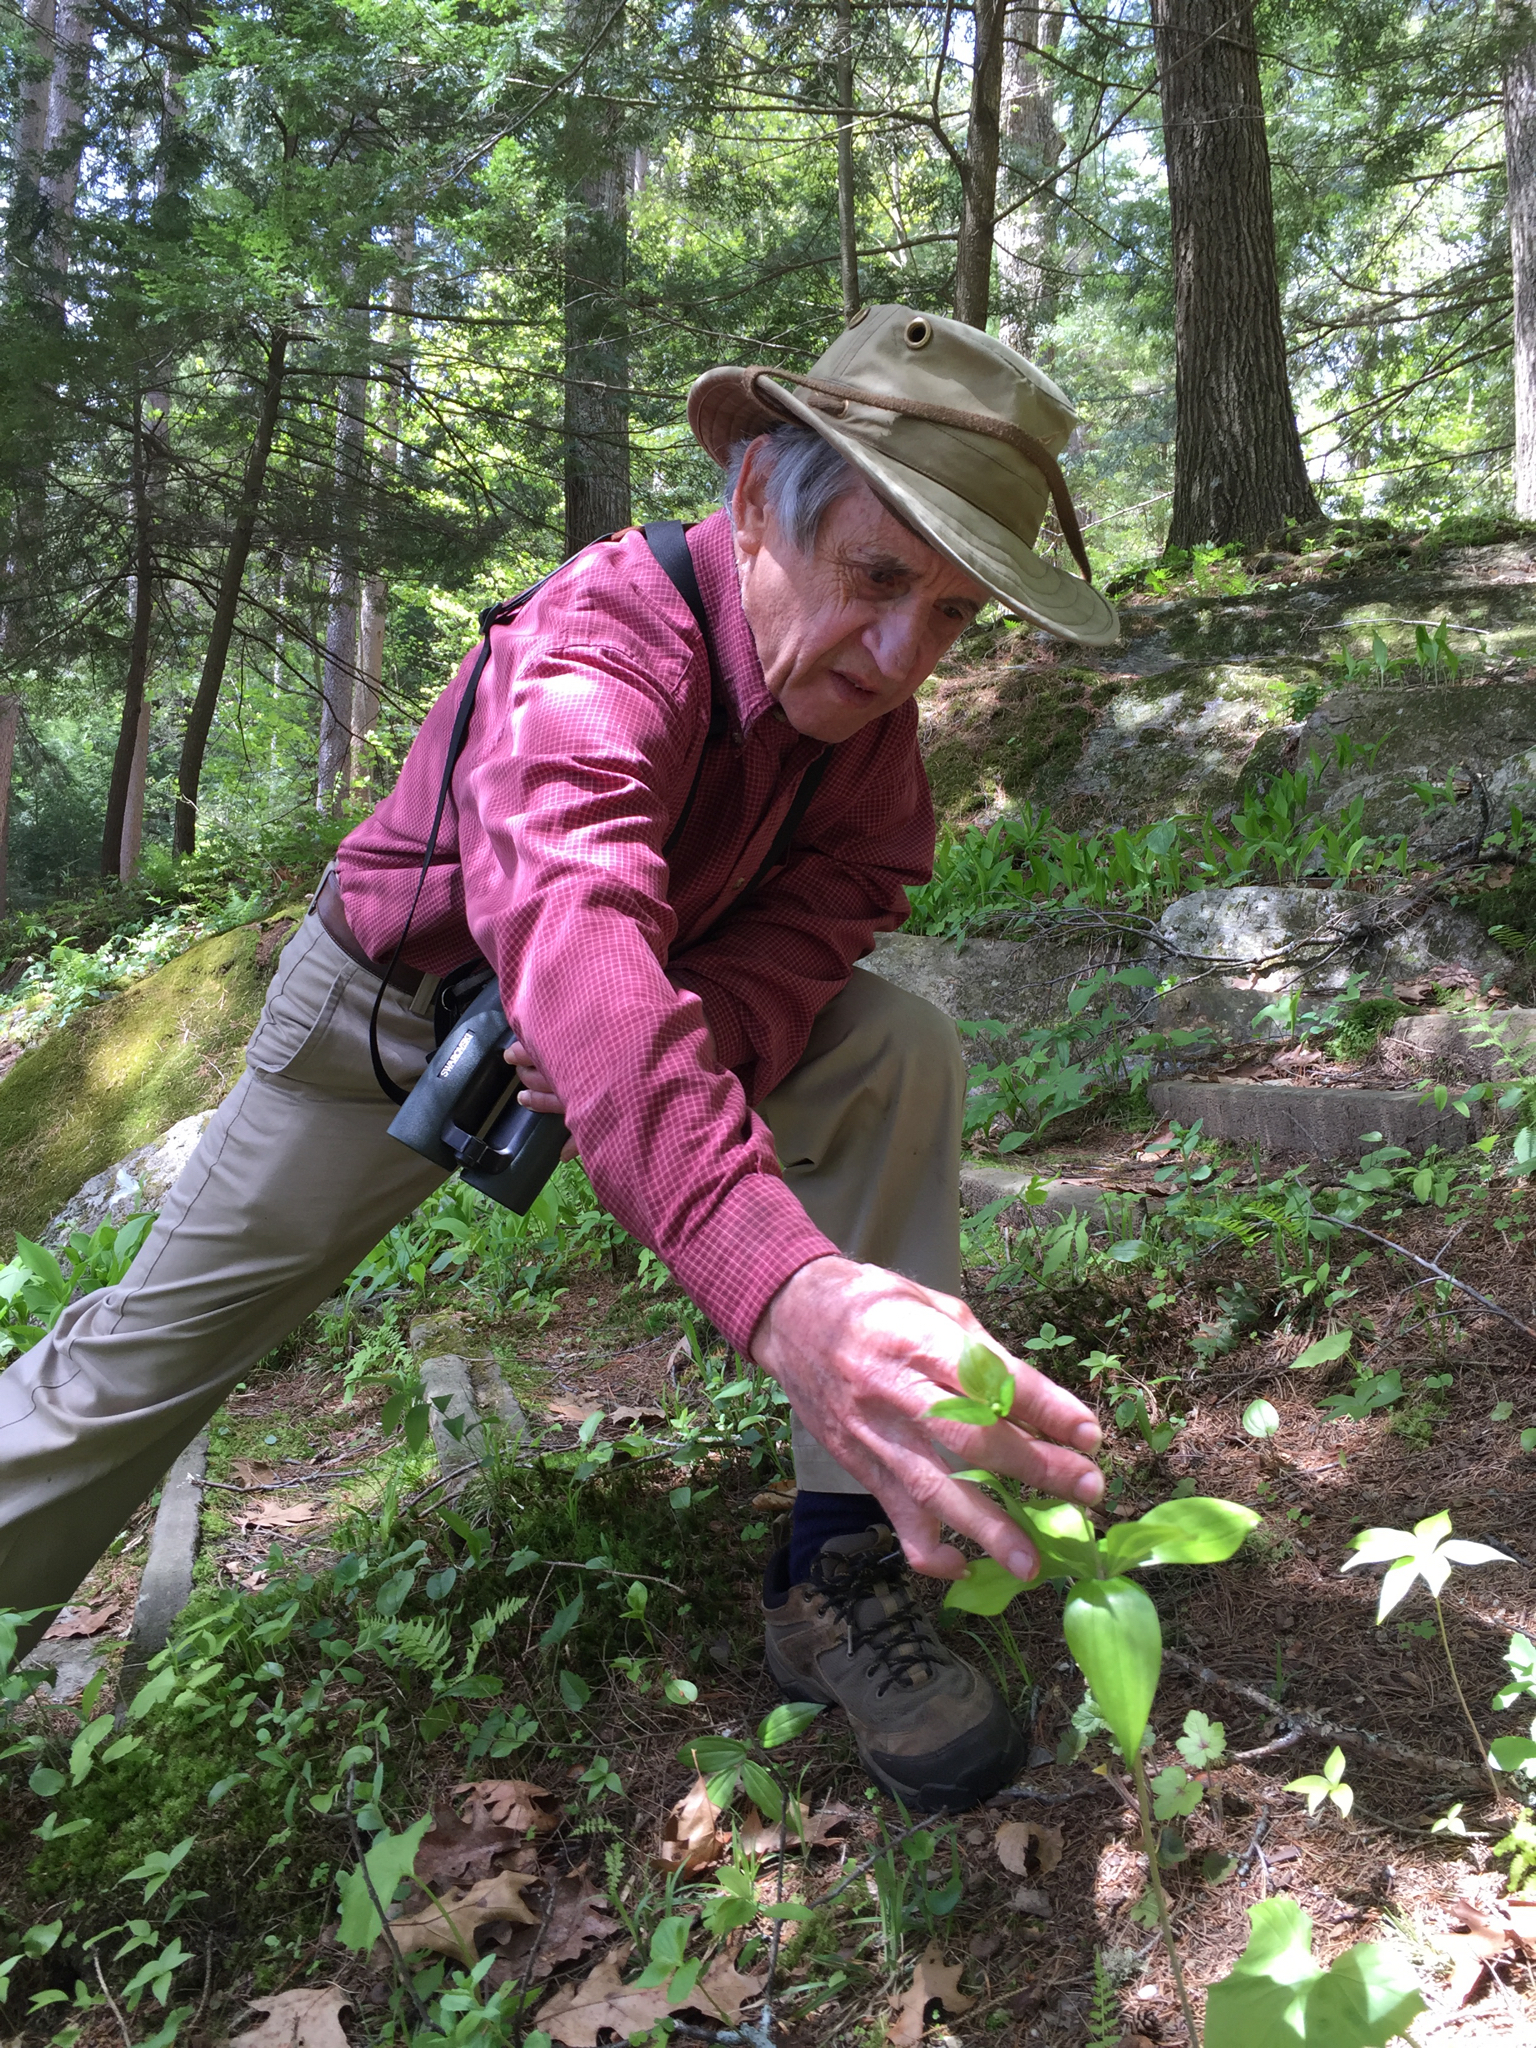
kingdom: Plantae
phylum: Tracheophyta
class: Liliopsida
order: Liliales
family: Liliaceae
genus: Medeola
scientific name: Medeola virginiana
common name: Indian cucumber-root
